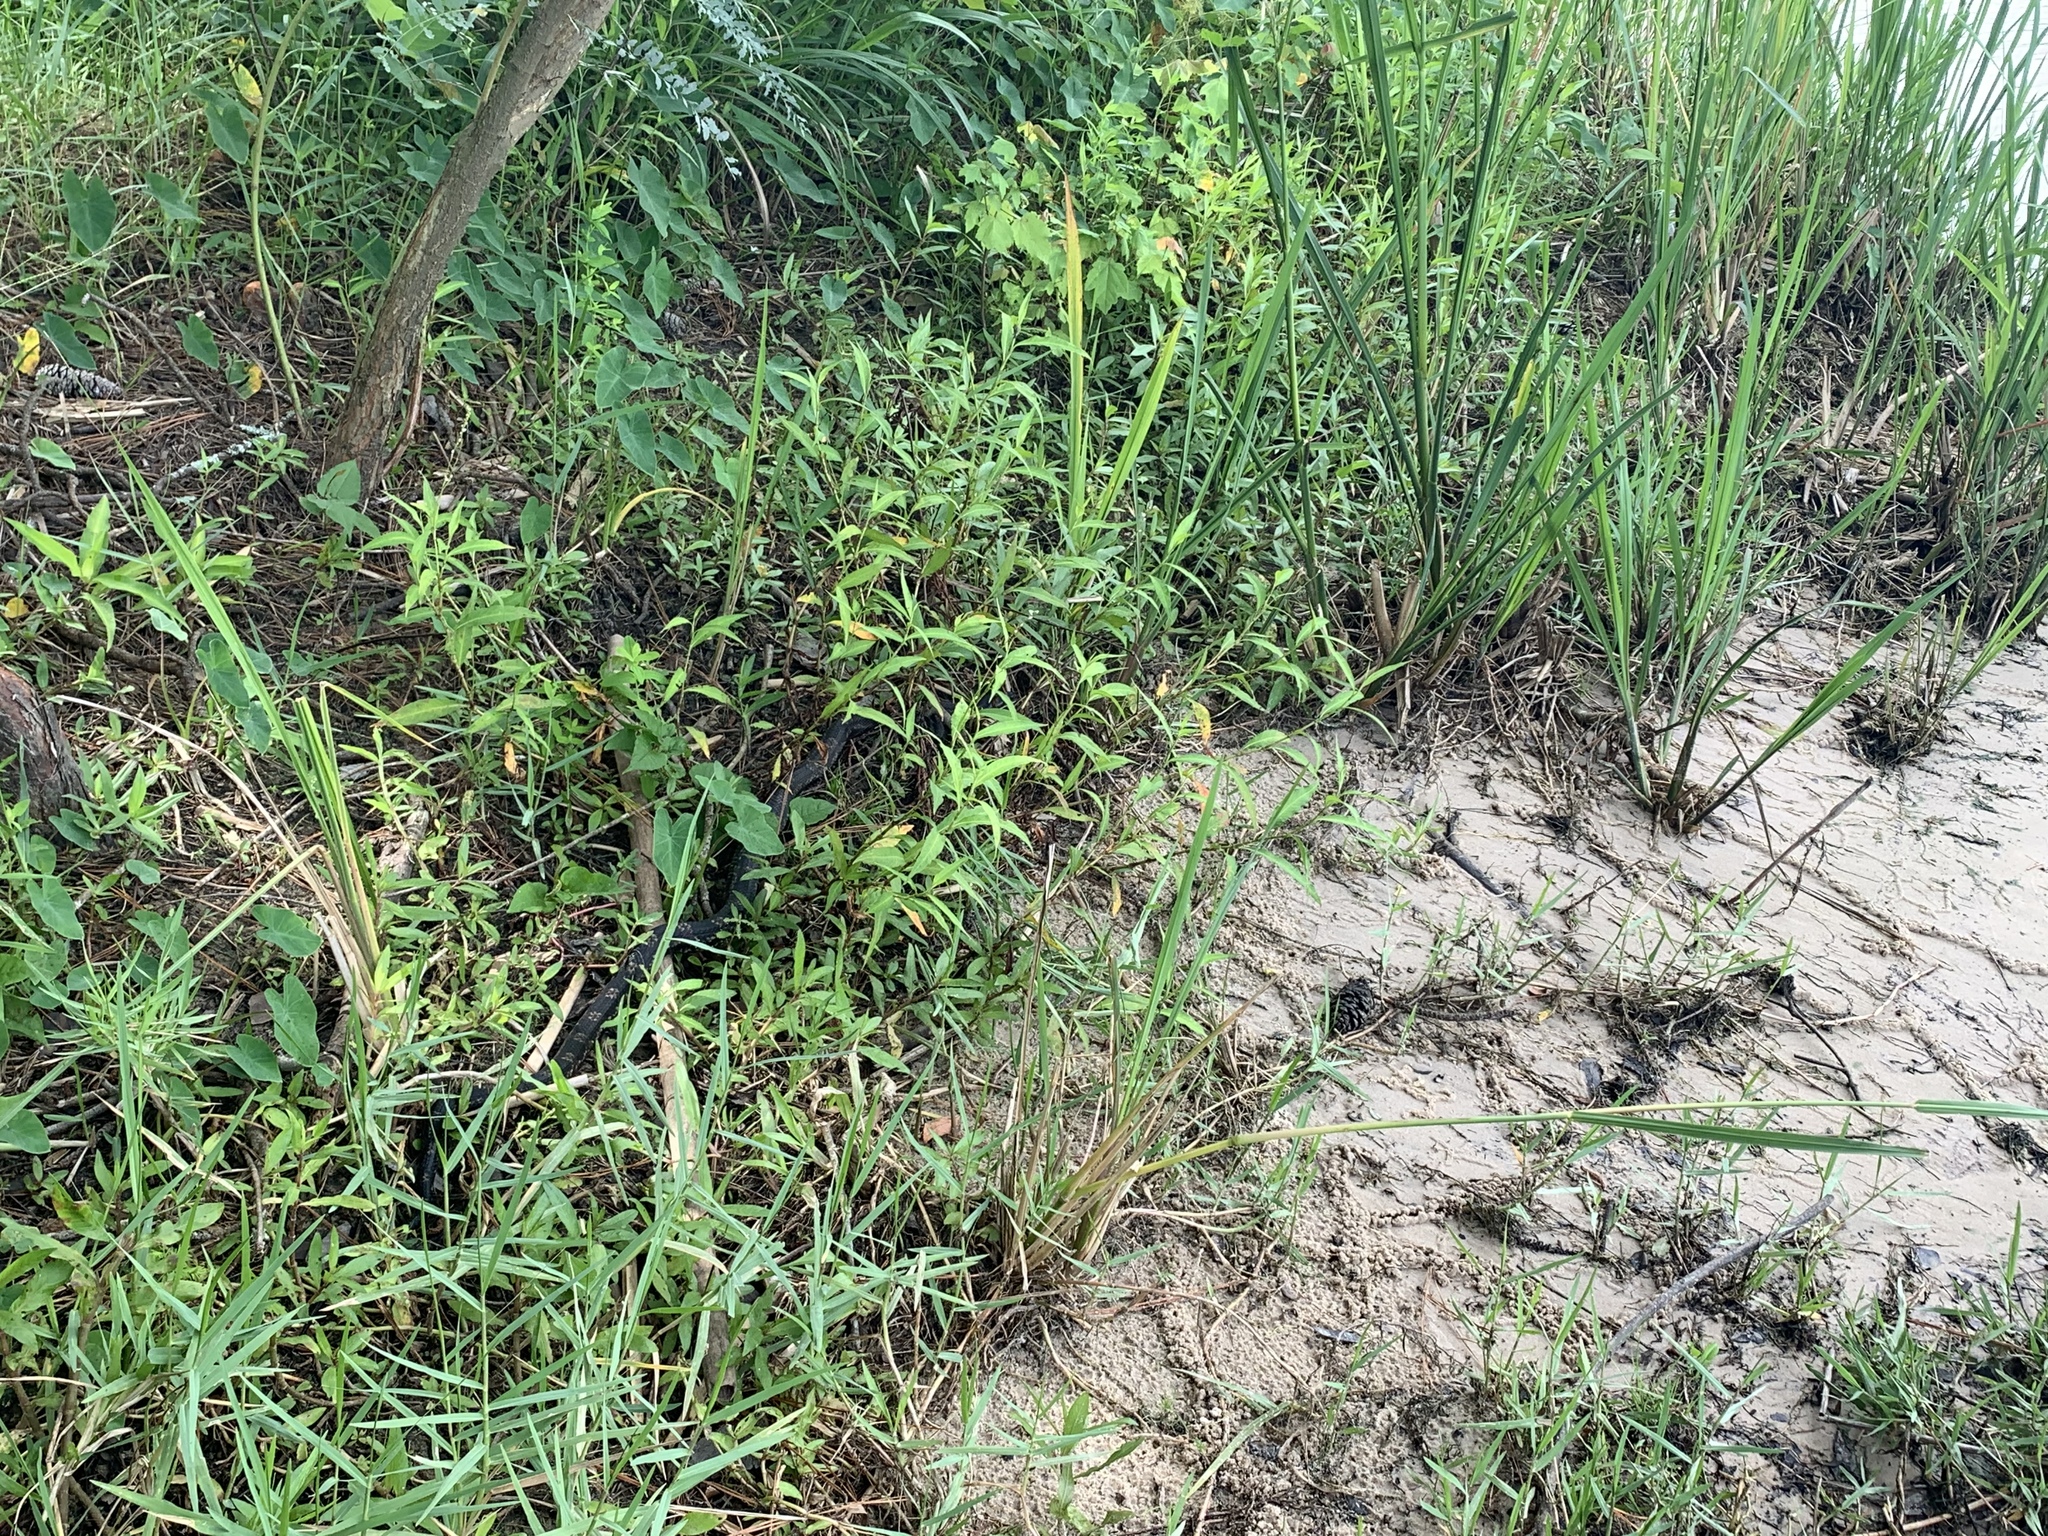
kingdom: Animalia
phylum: Chordata
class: Squamata
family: Colubridae
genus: Pantherophis
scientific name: Pantherophis obsoletus
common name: Black rat snake
